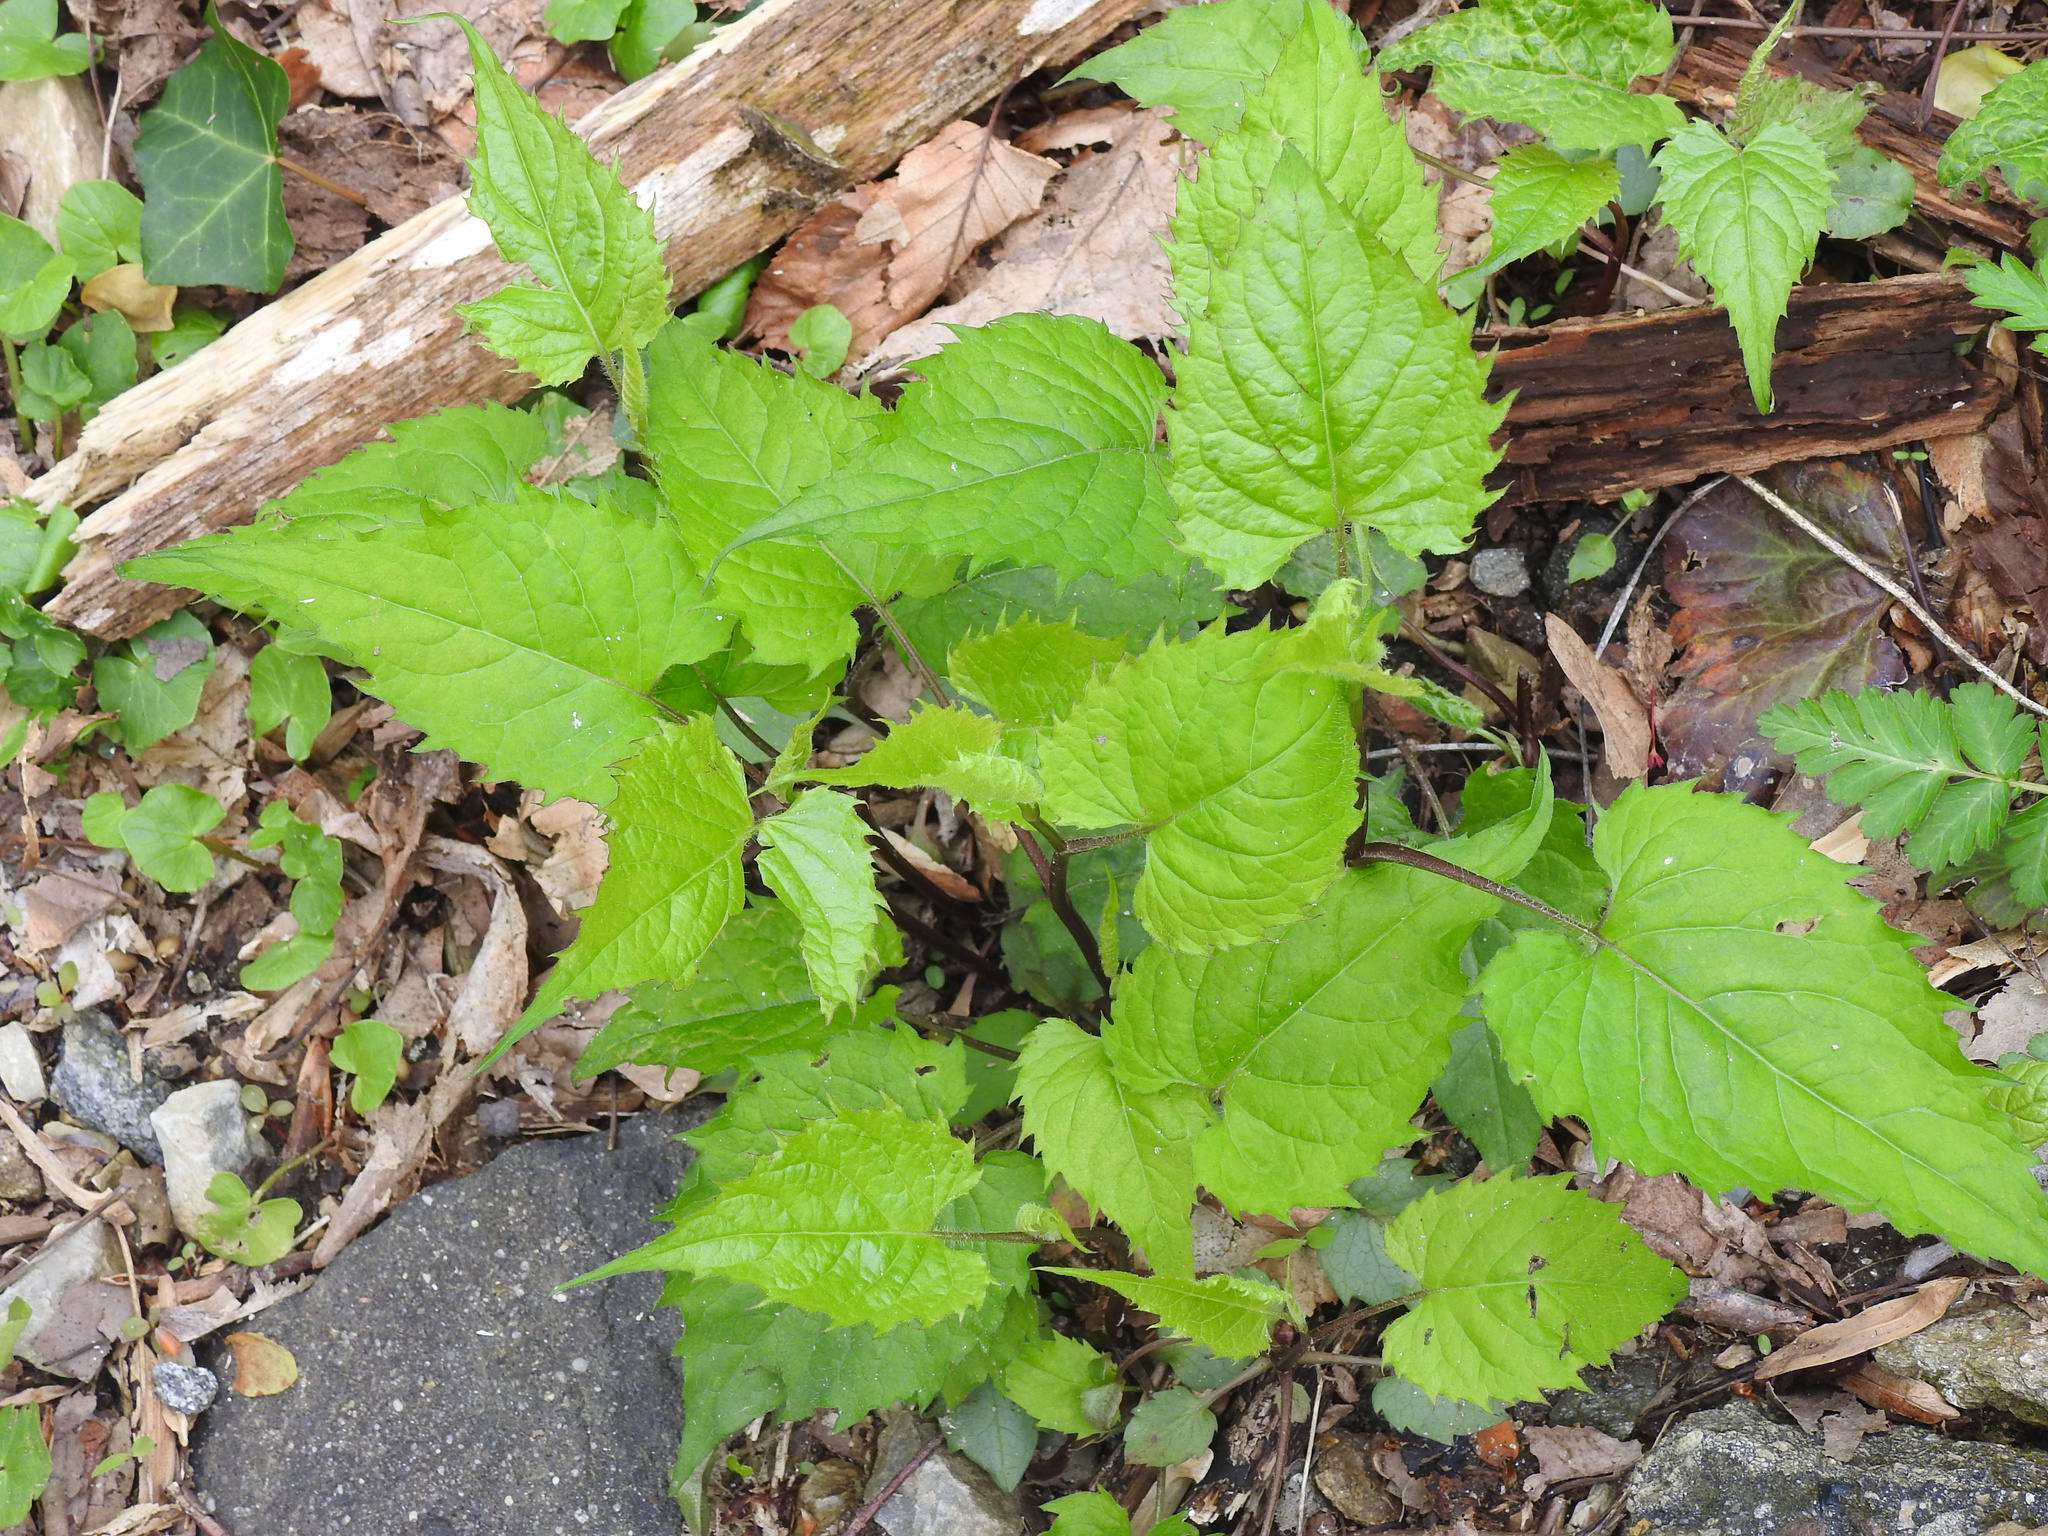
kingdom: Plantae
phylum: Tracheophyta
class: Magnoliopsida
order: Asterales
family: Asteraceae
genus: Eurybia
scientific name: Eurybia divaricata
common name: White wood aster
